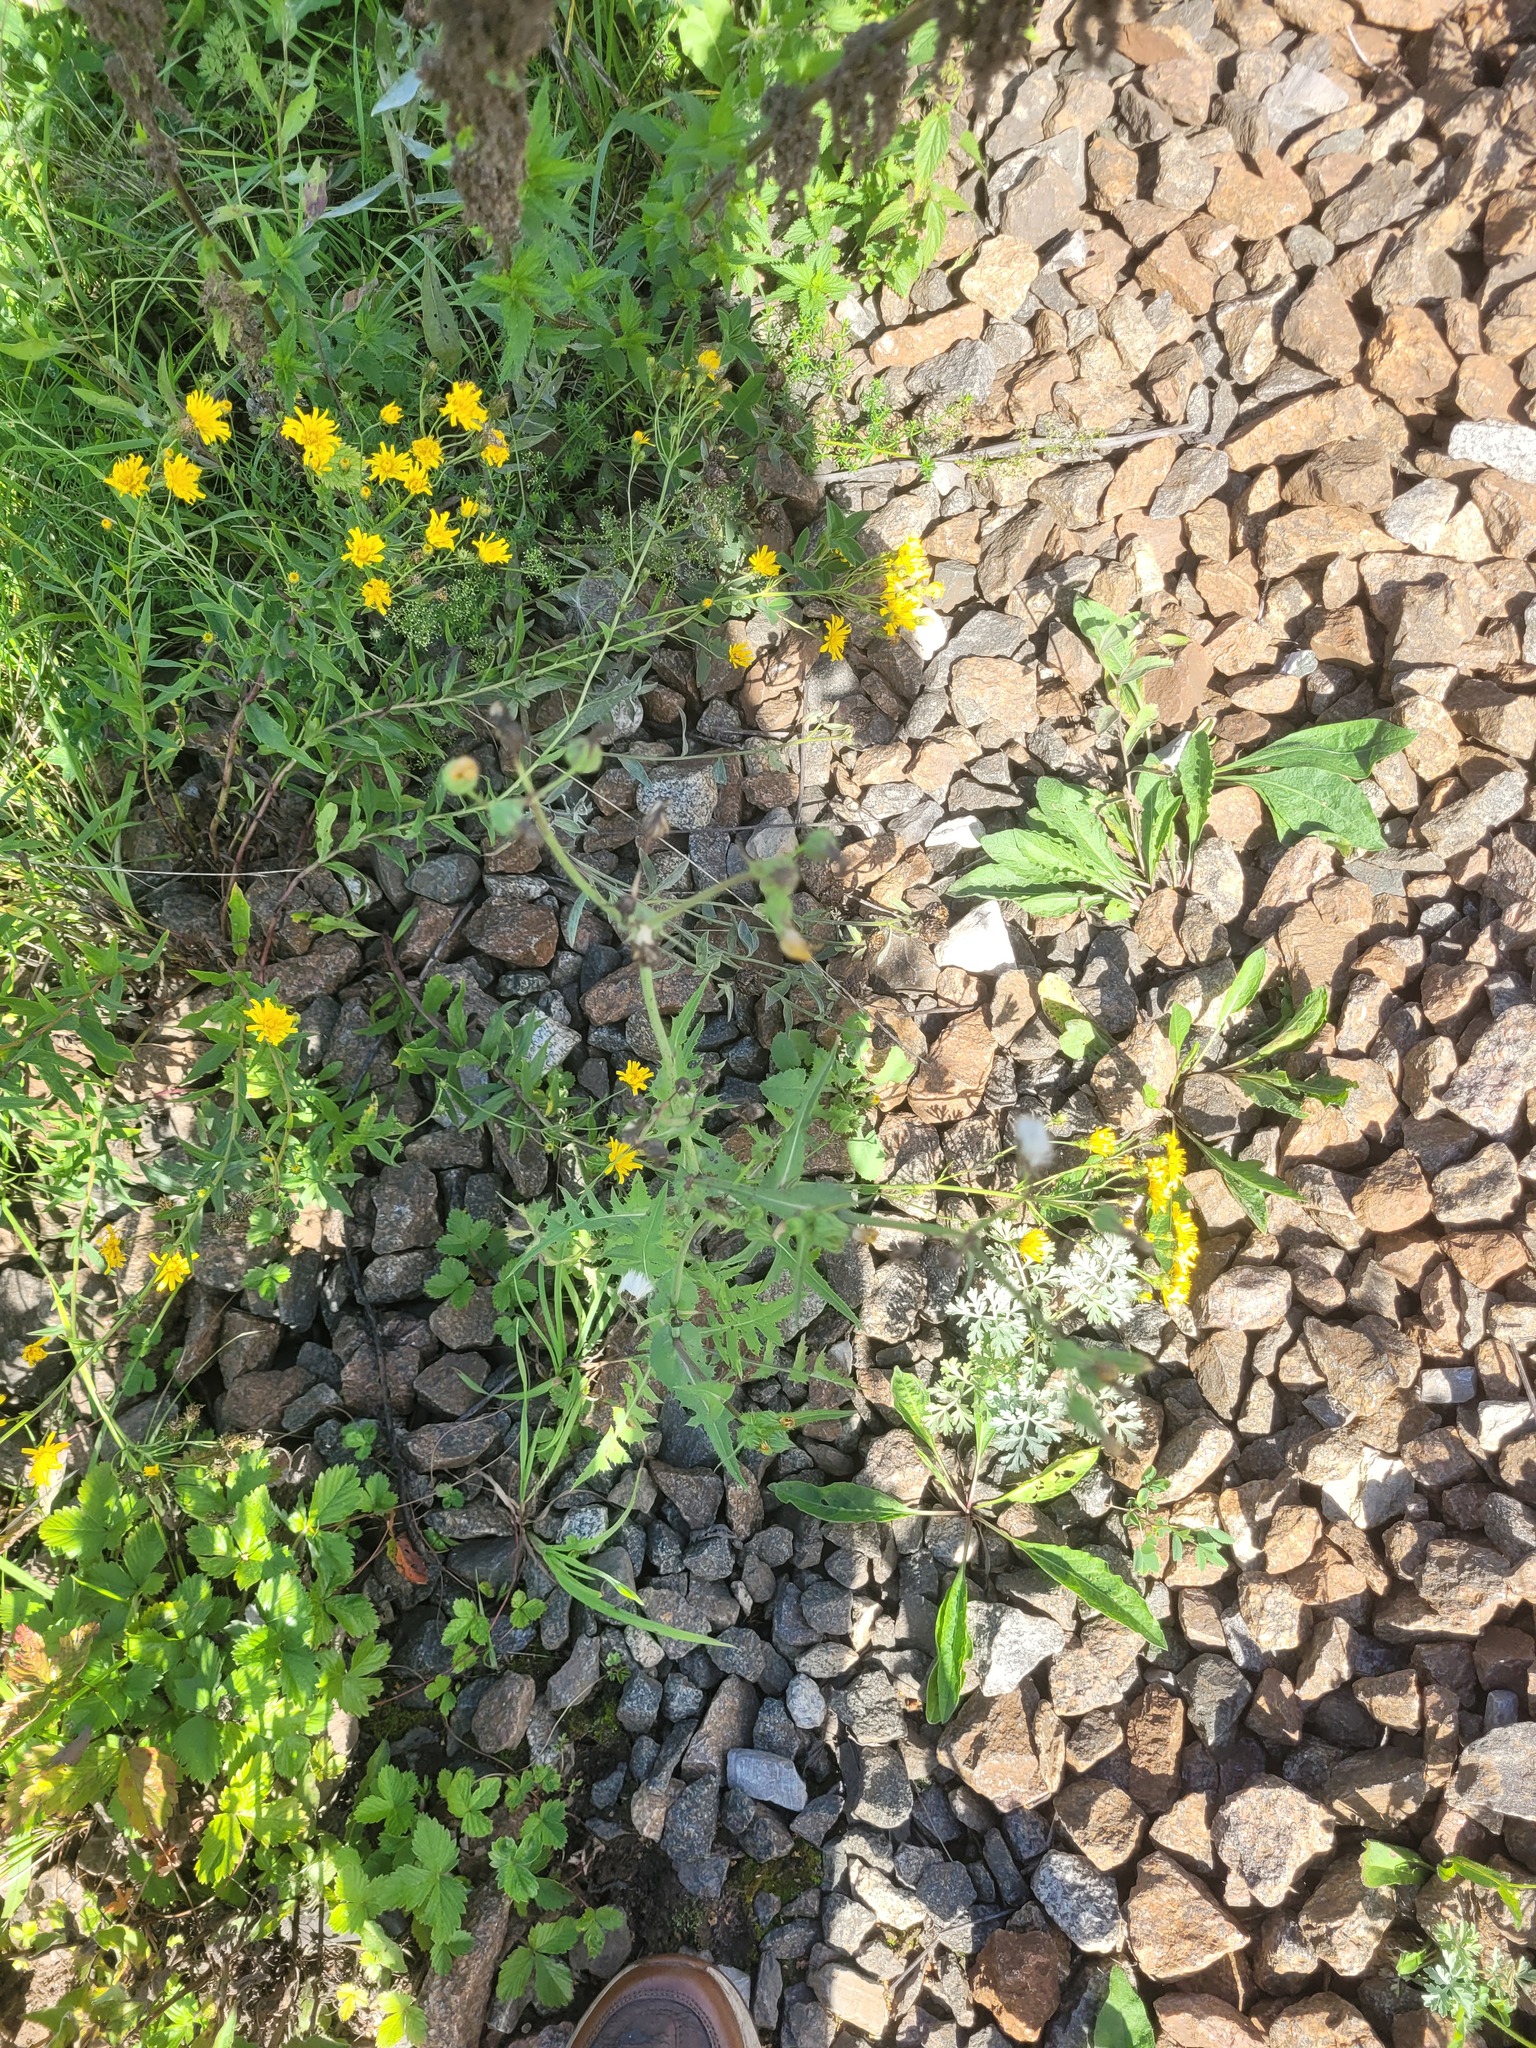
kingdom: Plantae
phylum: Tracheophyta
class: Magnoliopsida
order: Asterales
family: Asteraceae
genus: Sonchus
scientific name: Sonchus oleraceus
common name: Common sowthistle
